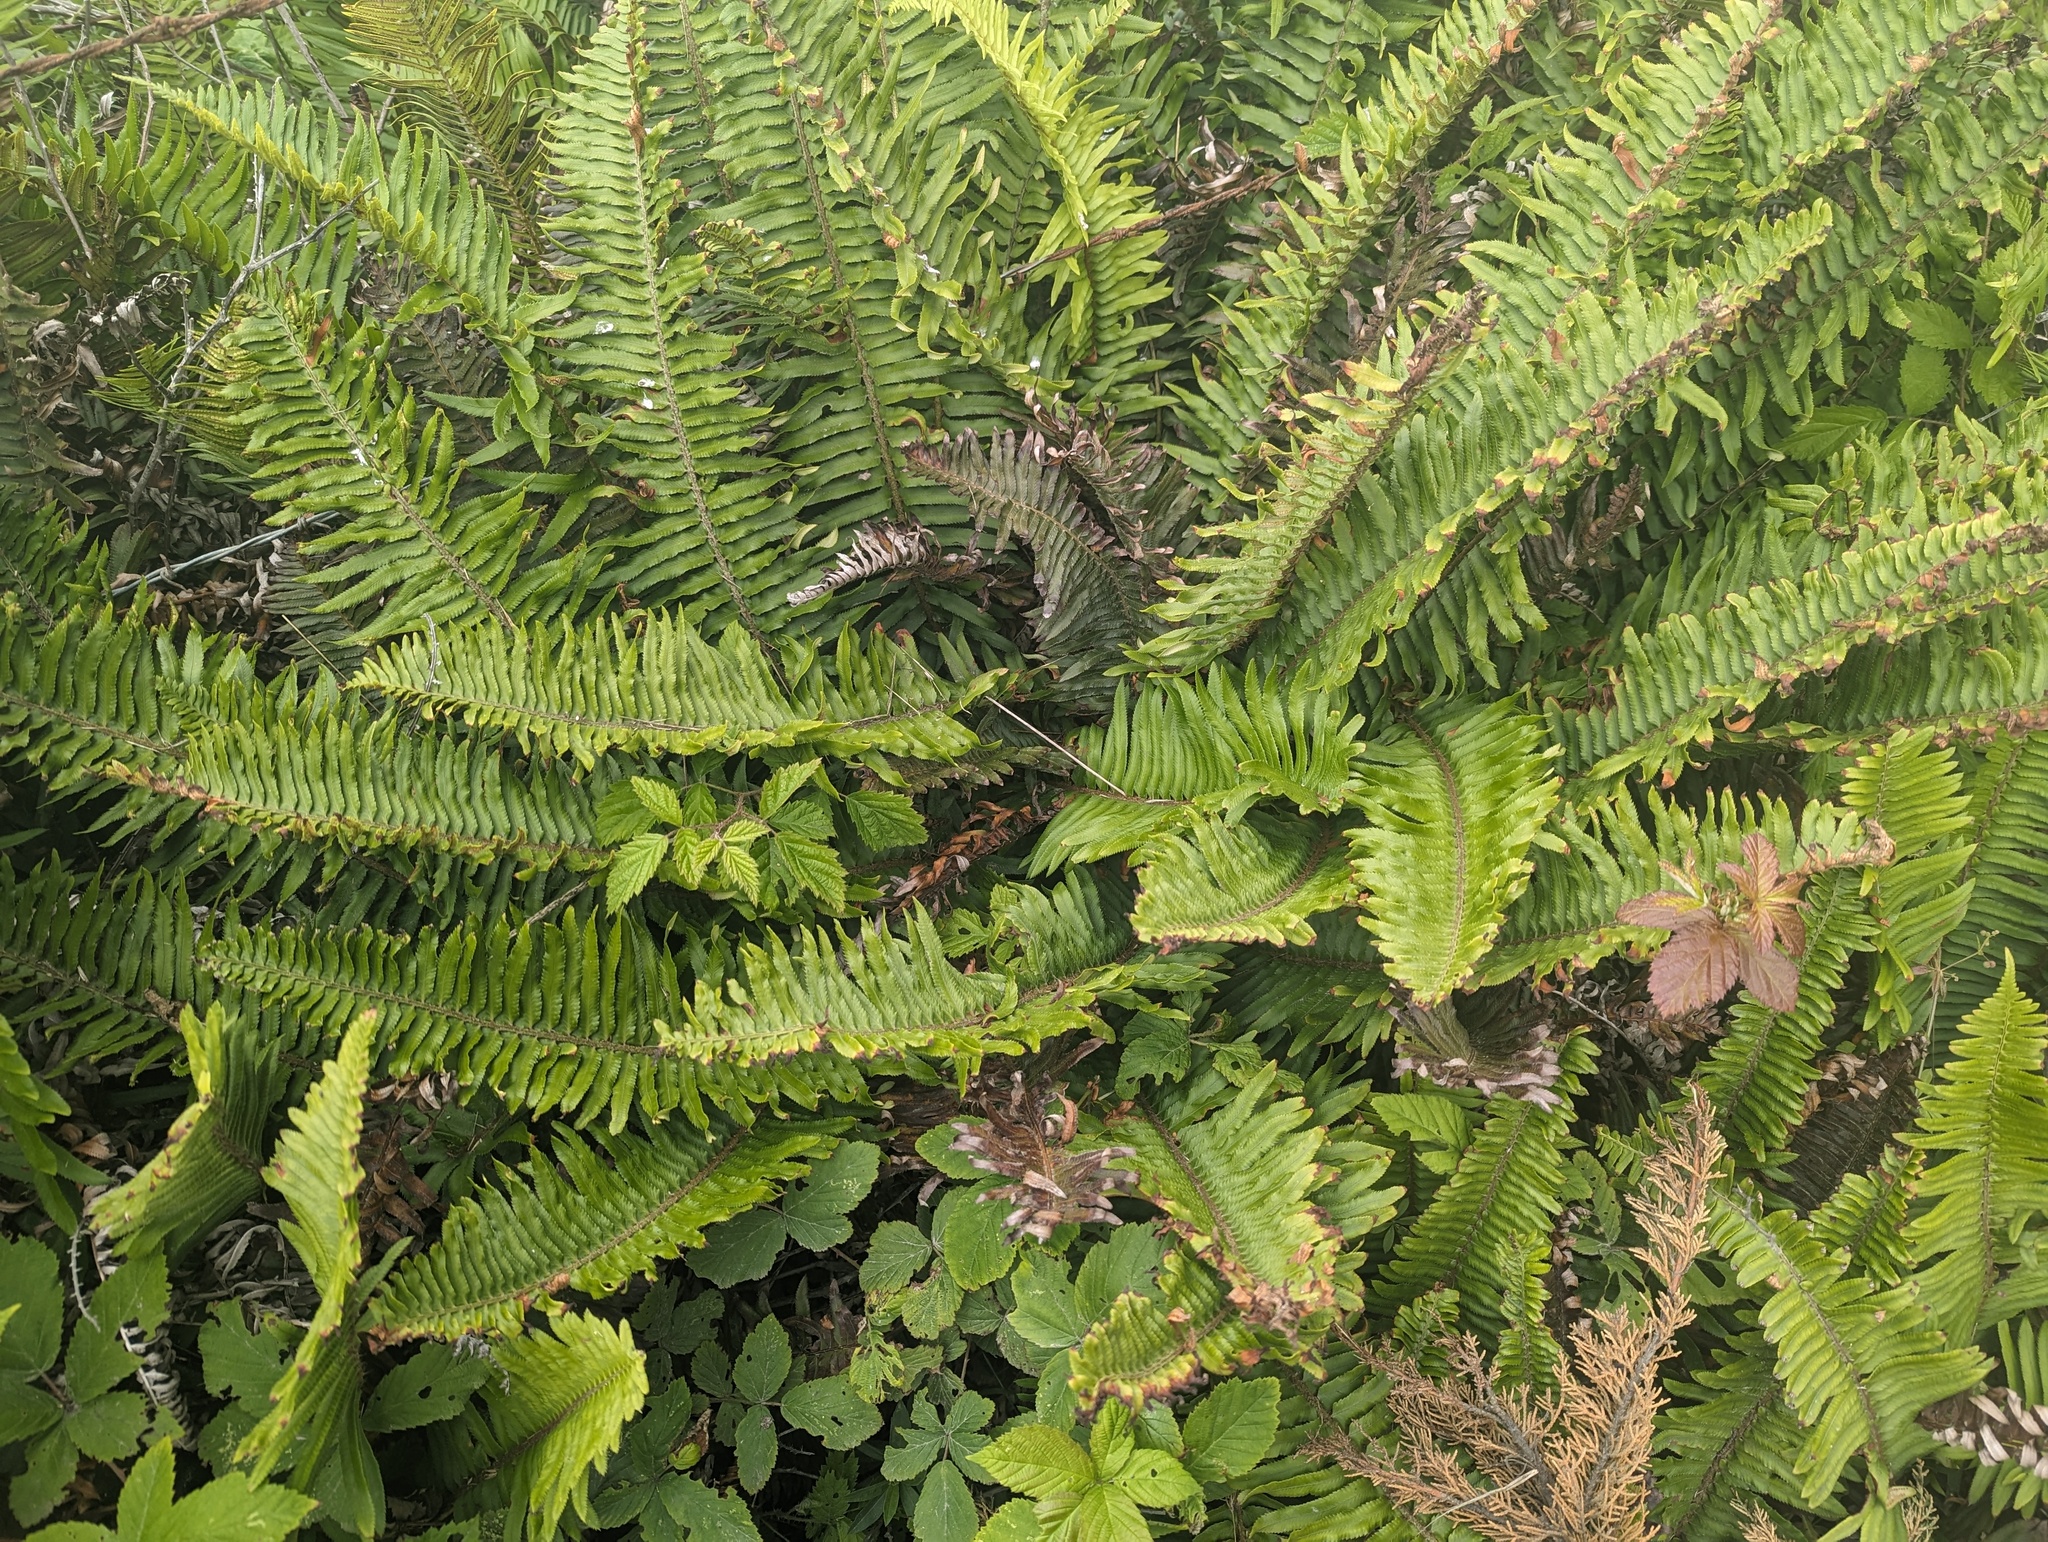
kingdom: Plantae
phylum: Tracheophyta
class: Polypodiopsida
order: Polypodiales
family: Dryopteridaceae
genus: Polystichum
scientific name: Polystichum munitum
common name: Western sword-fern
